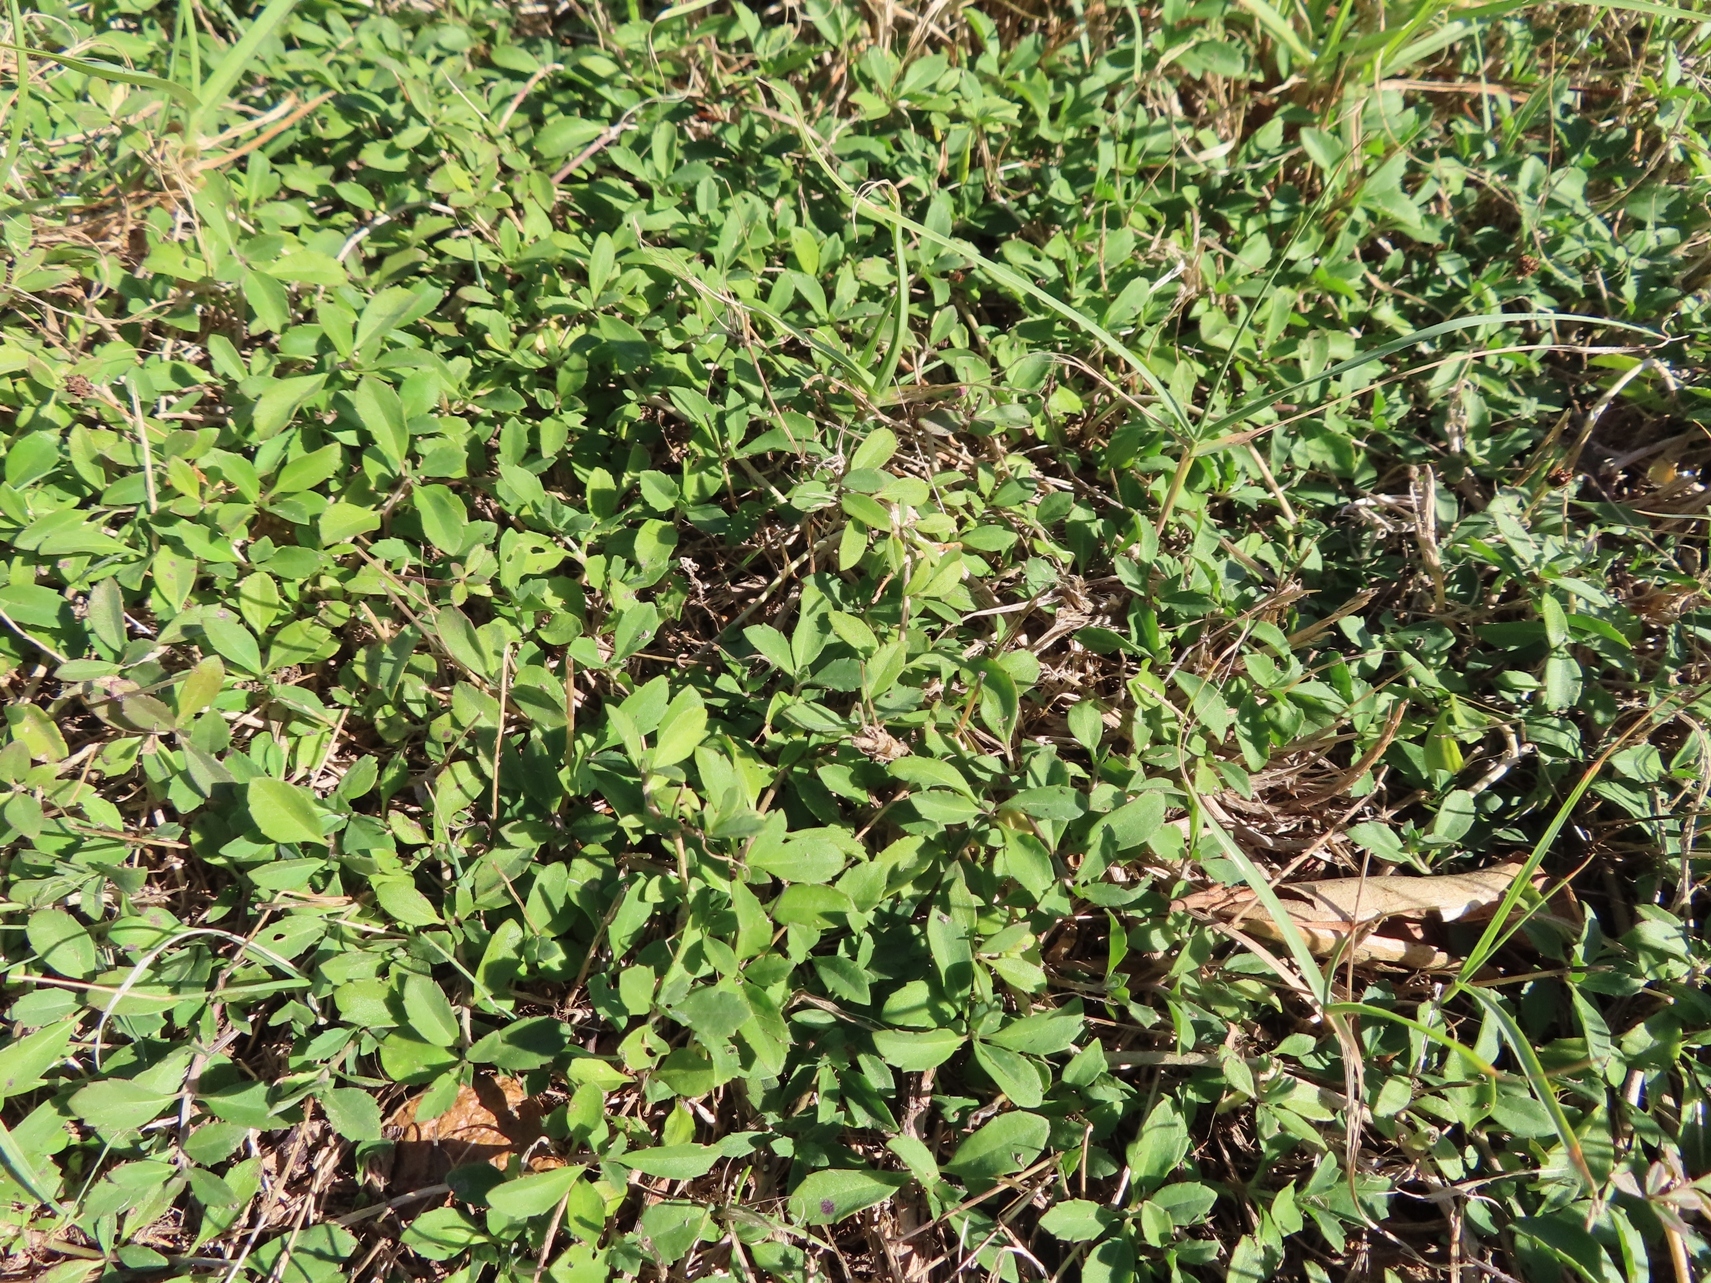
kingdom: Plantae
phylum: Tracheophyta
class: Magnoliopsida
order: Lamiales
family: Verbenaceae
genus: Phyla
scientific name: Phyla nodiflora
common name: Frogfruit
